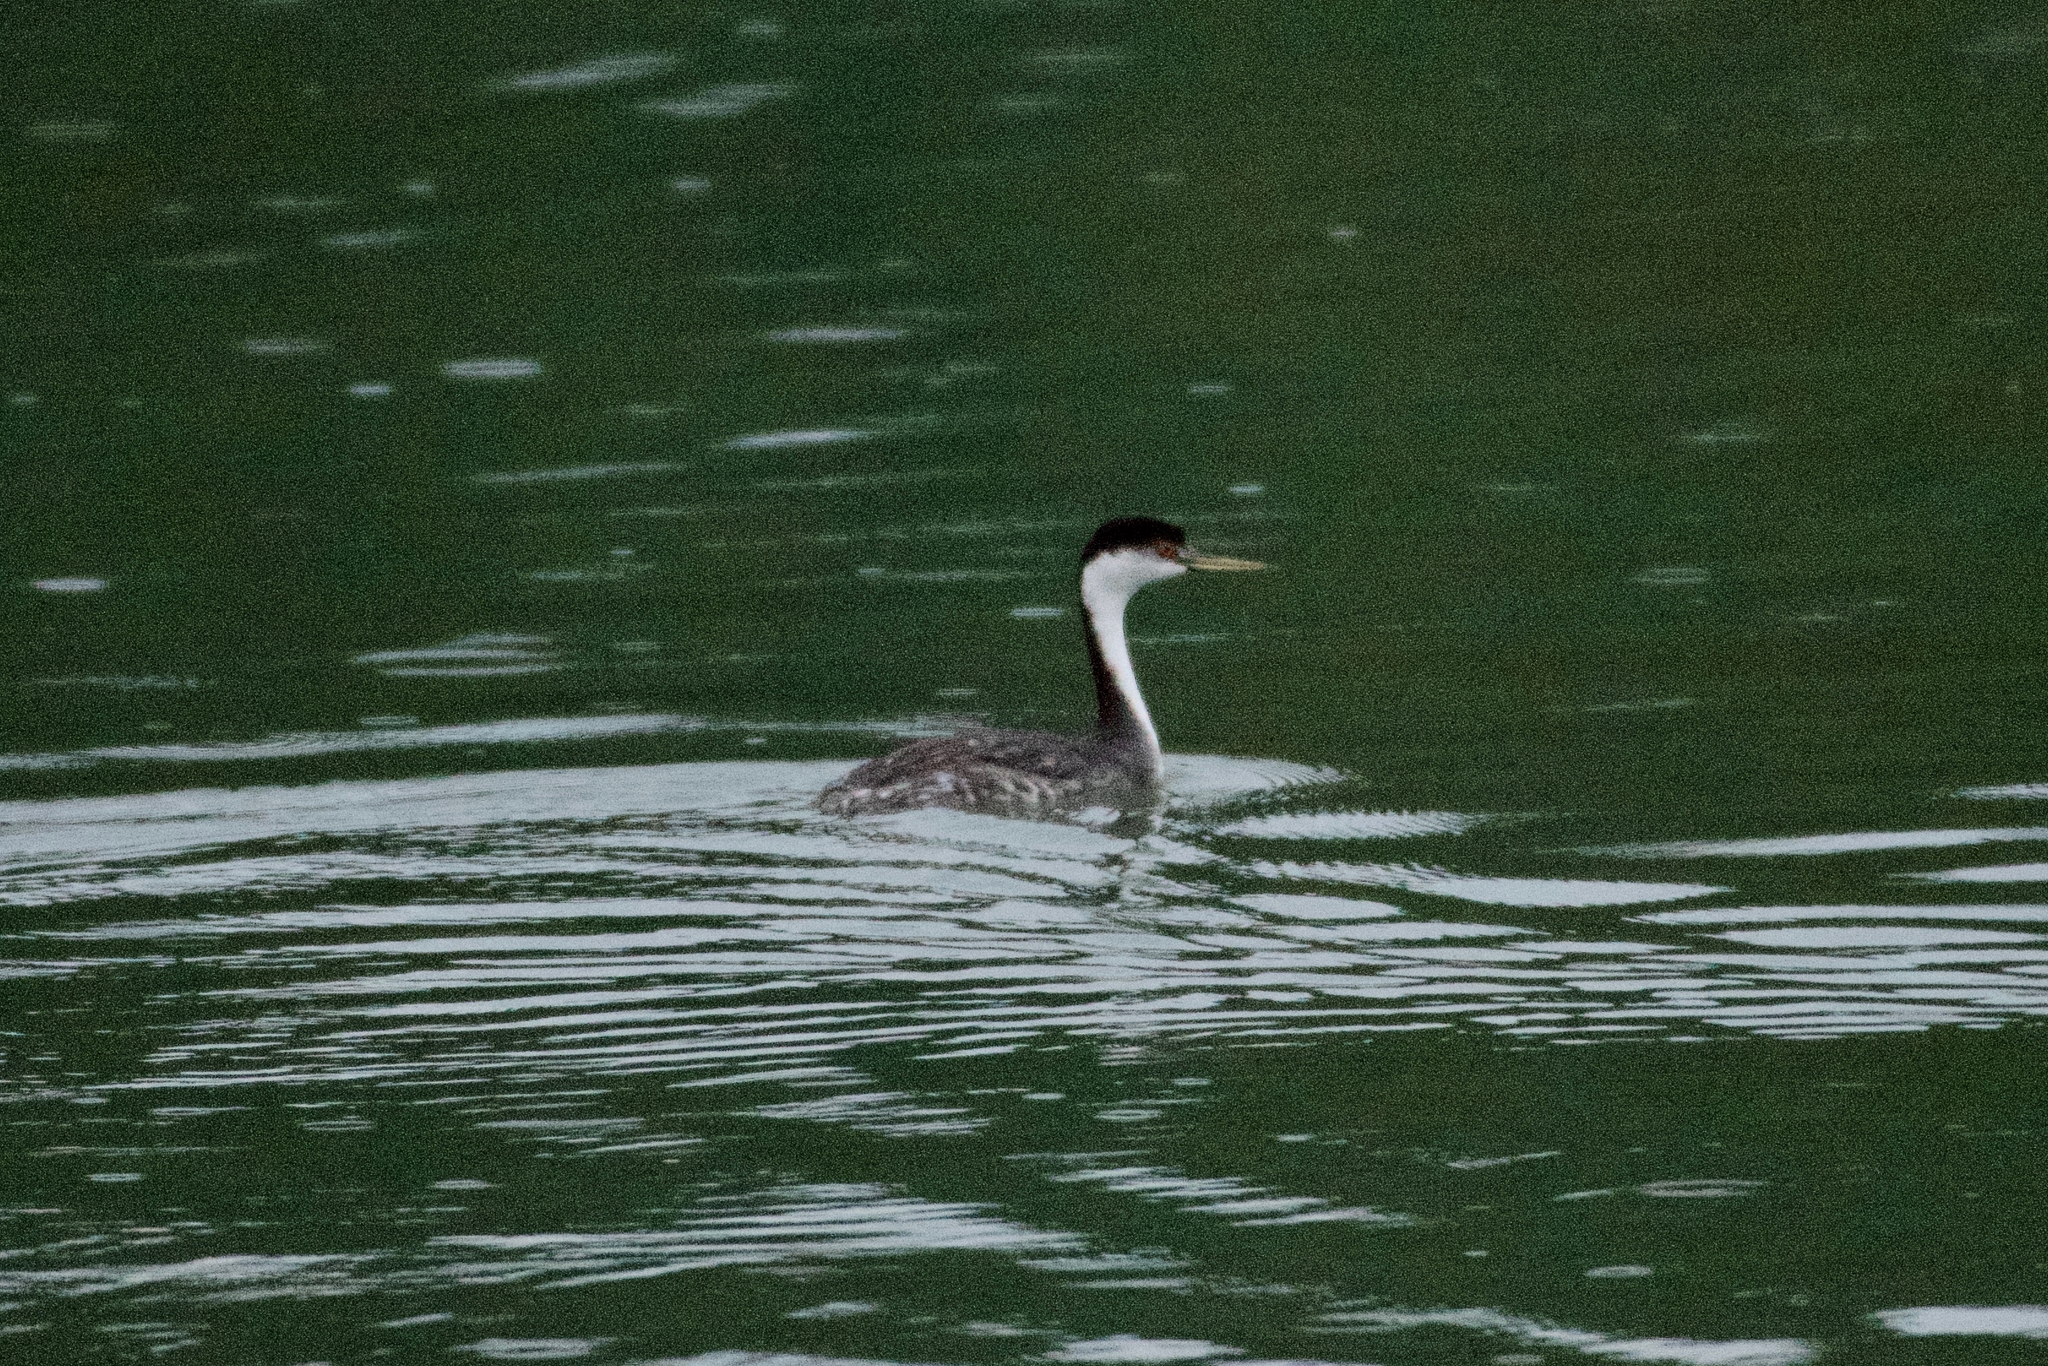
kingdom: Animalia
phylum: Chordata
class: Aves
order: Podicipediformes
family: Podicipedidae
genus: Aechmophorus
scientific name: Aechmophorus occidentalis
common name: Western grebe
